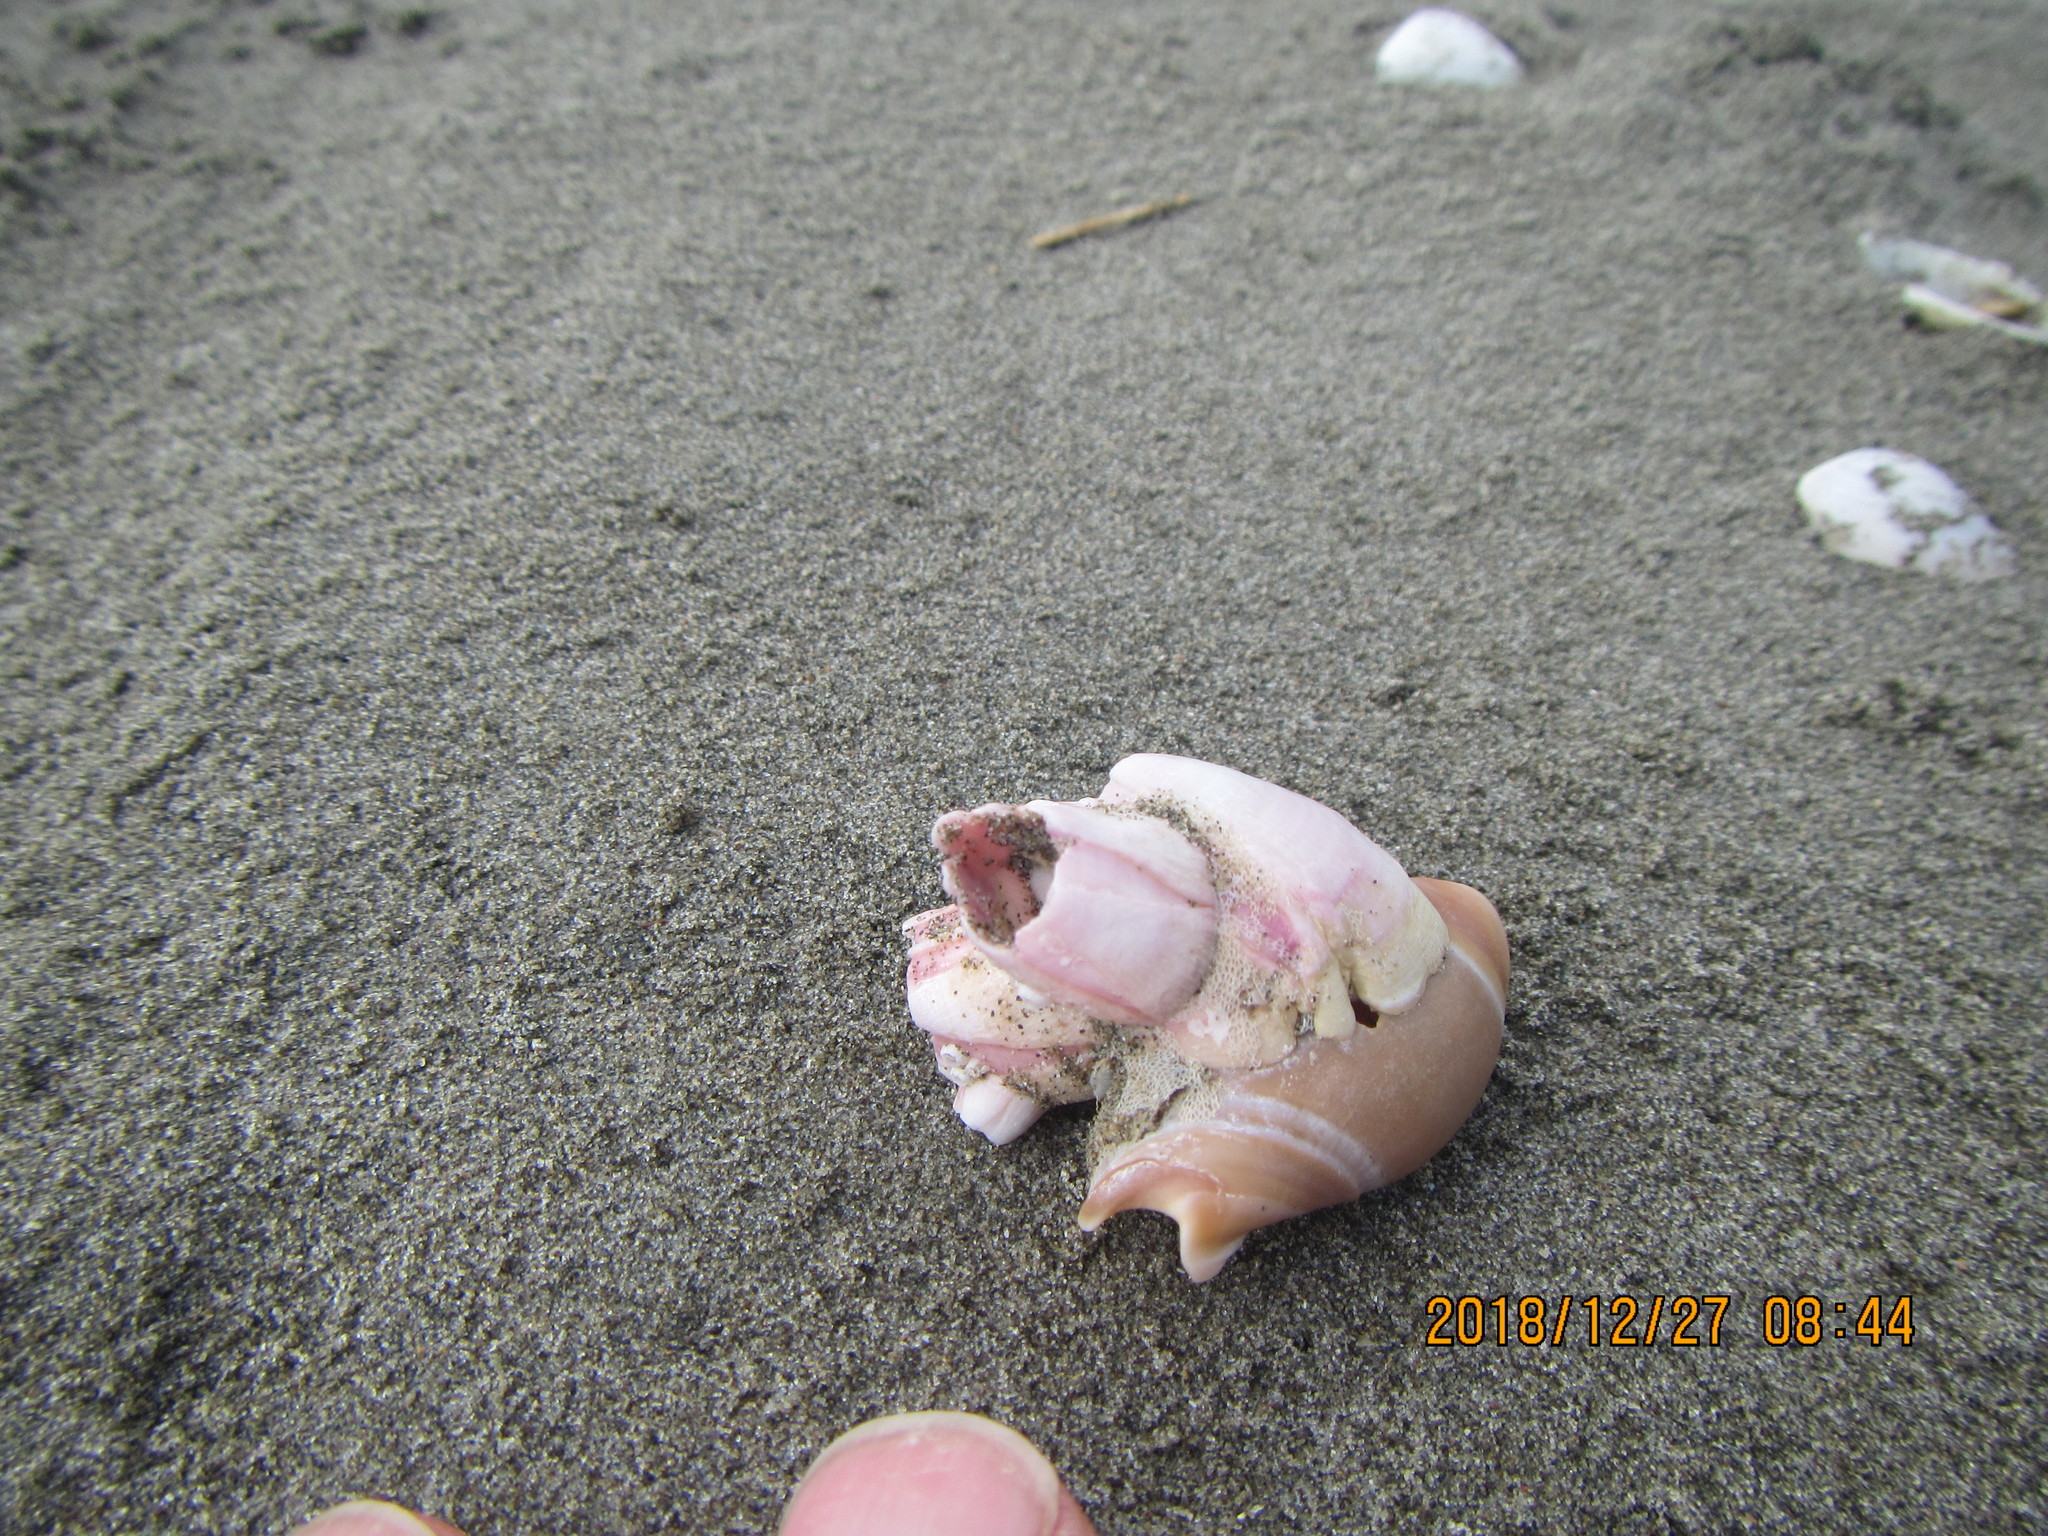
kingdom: Animalia
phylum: Mollusca
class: Gastropoda
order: Neogastropoda
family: Ancillariidae
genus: Amalda
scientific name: Amalda mucronata
